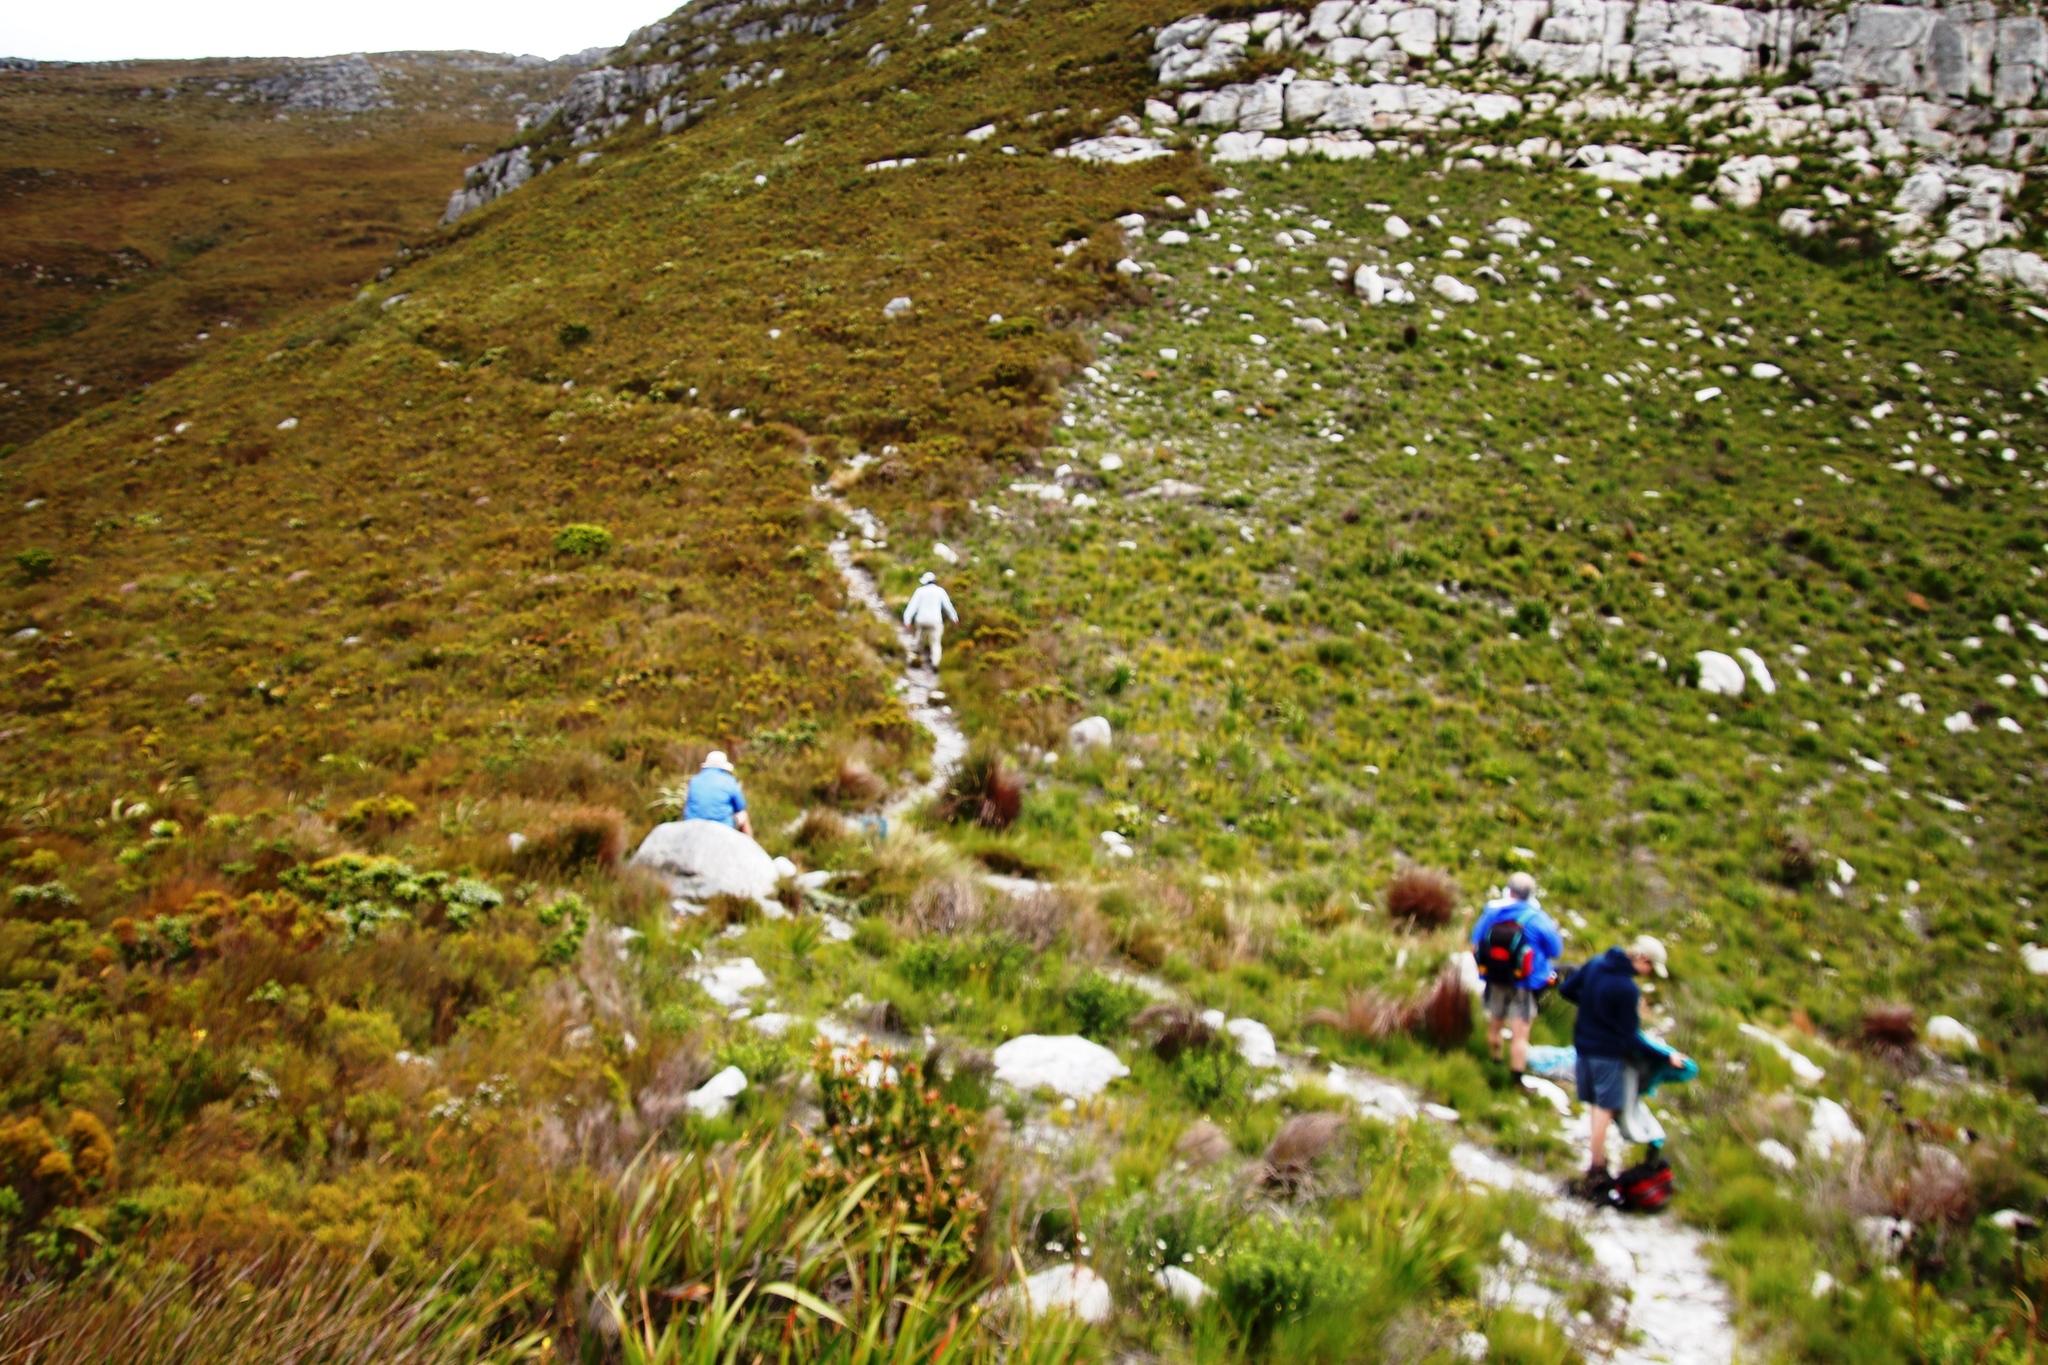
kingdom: Plantae
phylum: Tracheophyta
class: Magnoliopsida
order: Proteales
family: Proteaceae
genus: Leucadendron
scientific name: Leucadendron gandogeri
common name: Broad-leaf conebush
